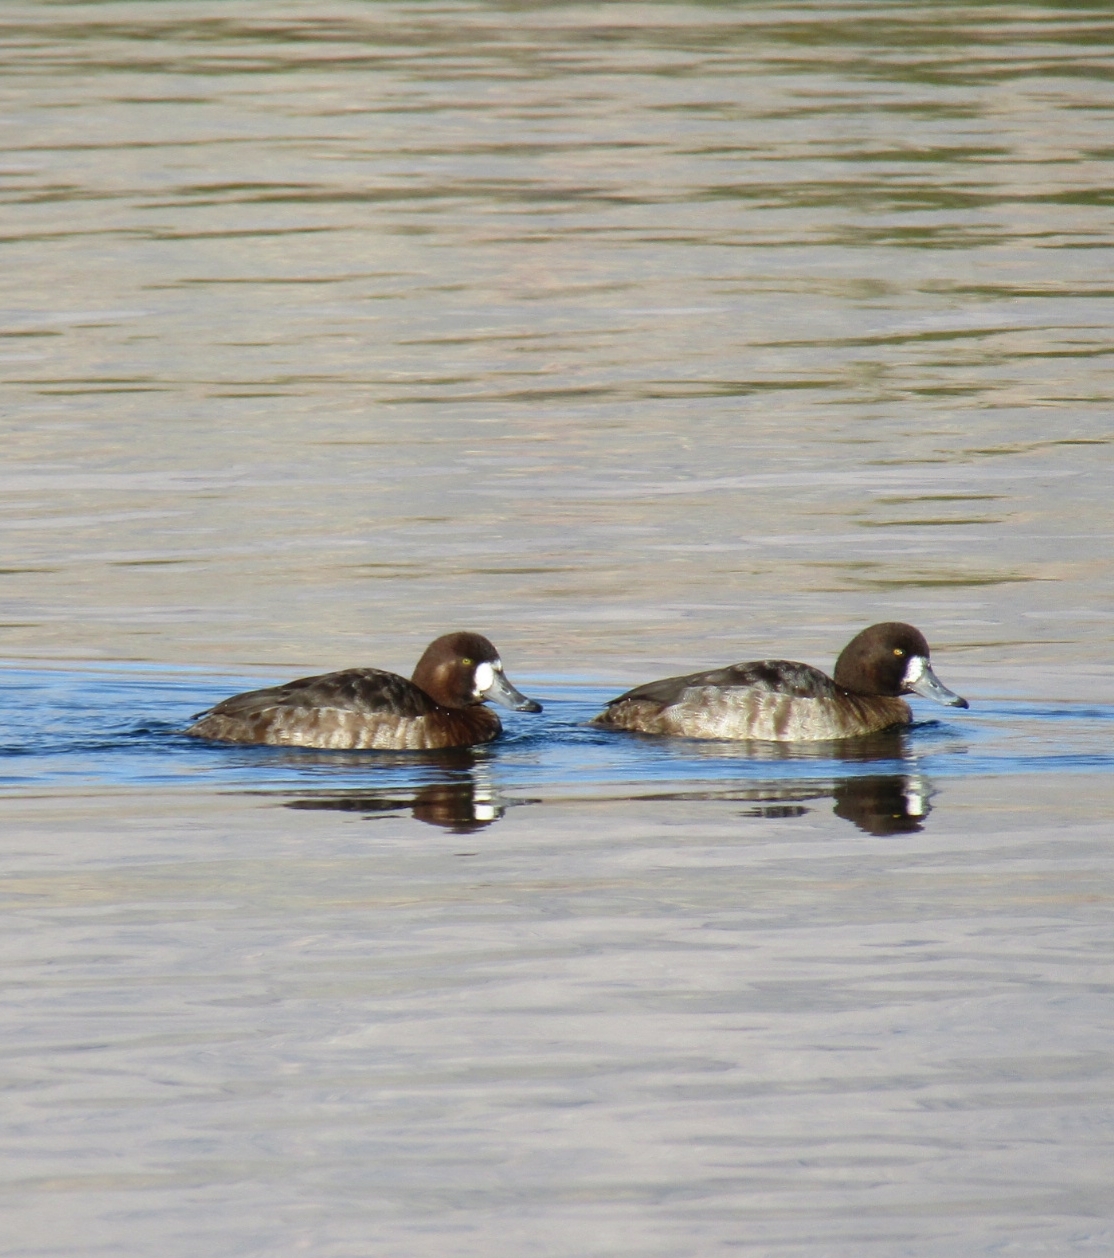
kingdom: Animalia
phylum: Chordata
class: Aves
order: Anseriformes
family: Anatidae
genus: Aythya
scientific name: Aythya marila
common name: Greater scaup
